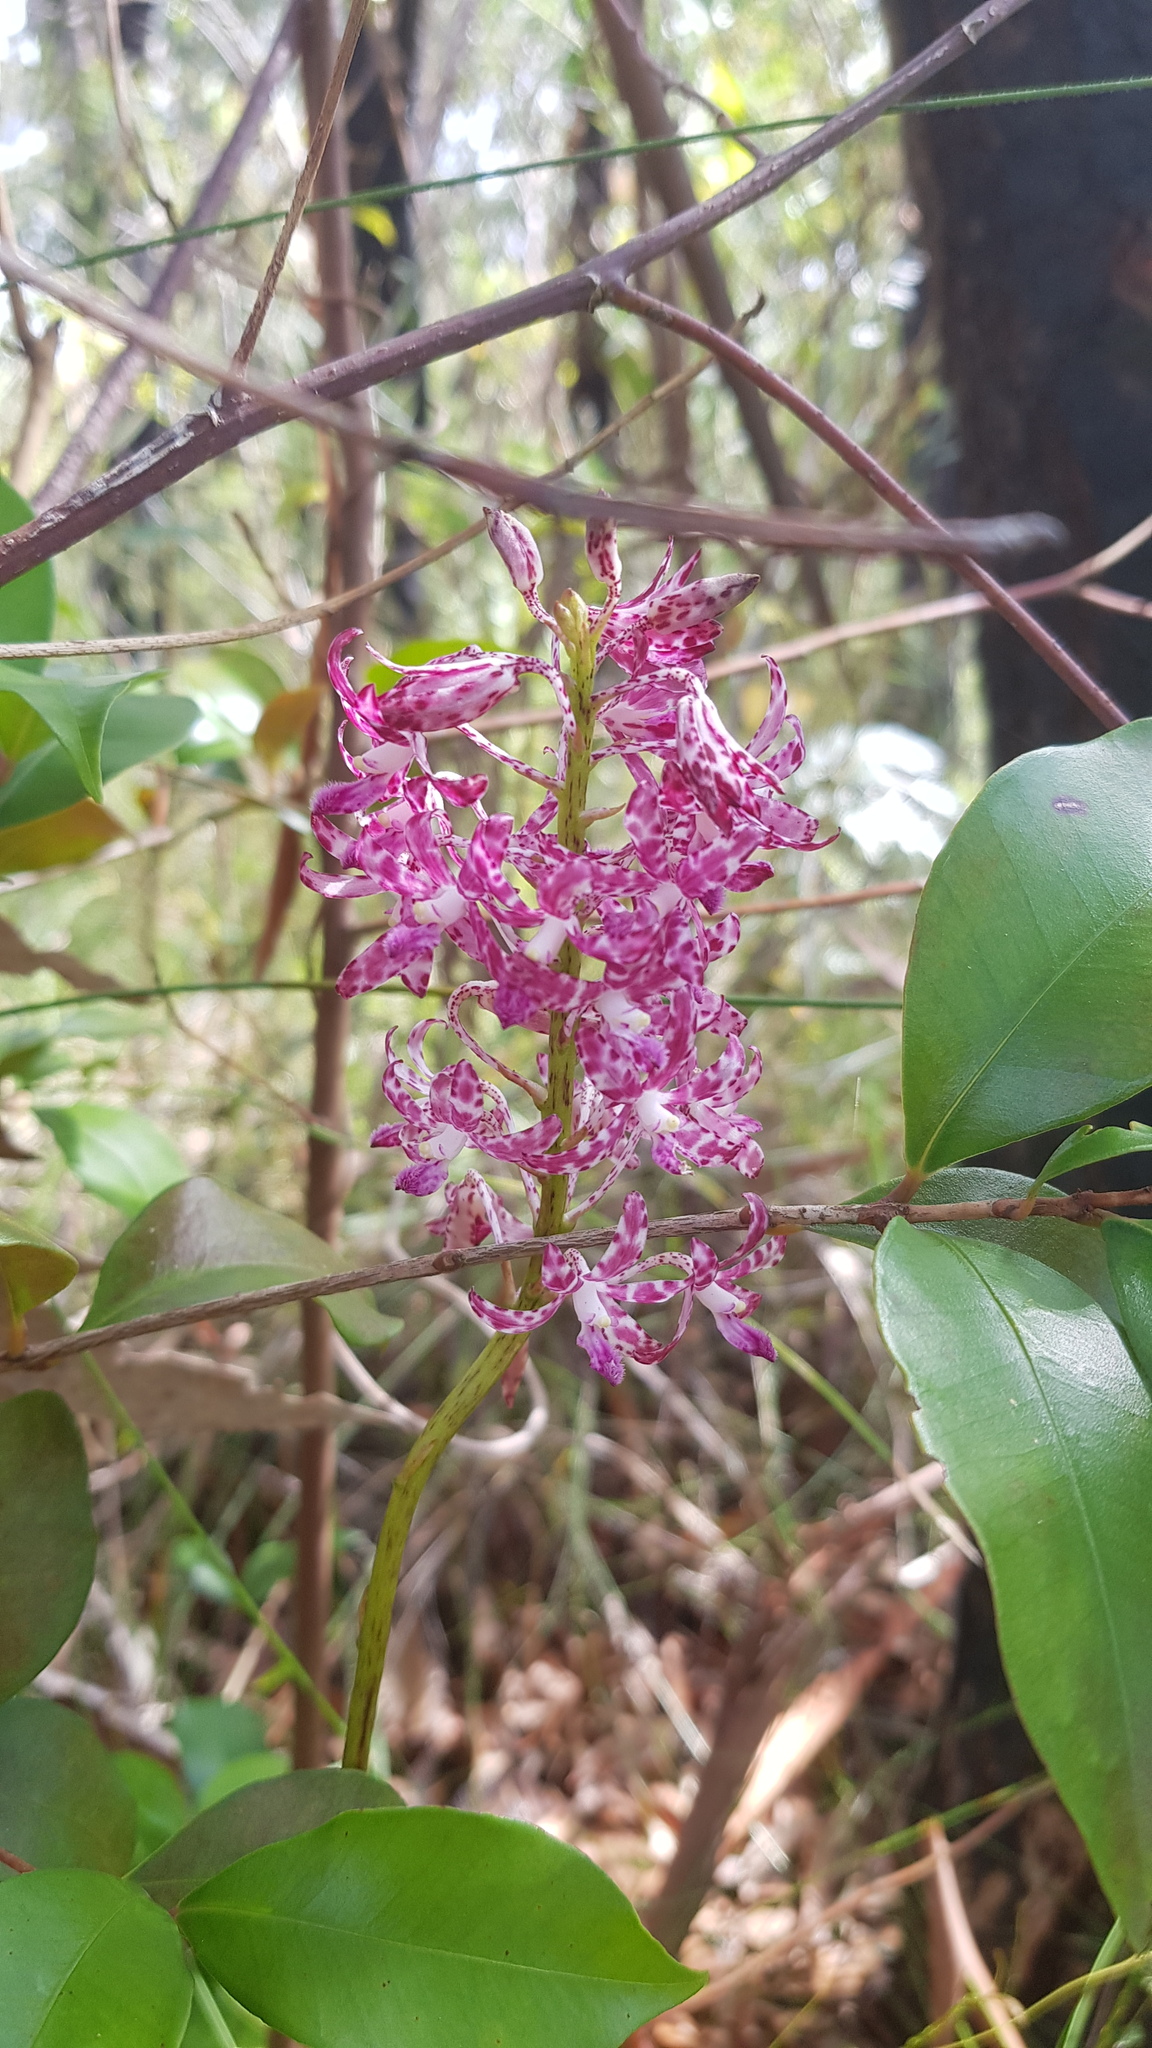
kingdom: Plantae
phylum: Tracheophyta
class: Liliopsida
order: Asparagales
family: Orchidaceae
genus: Dipodium
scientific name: Dipodium variegatum
